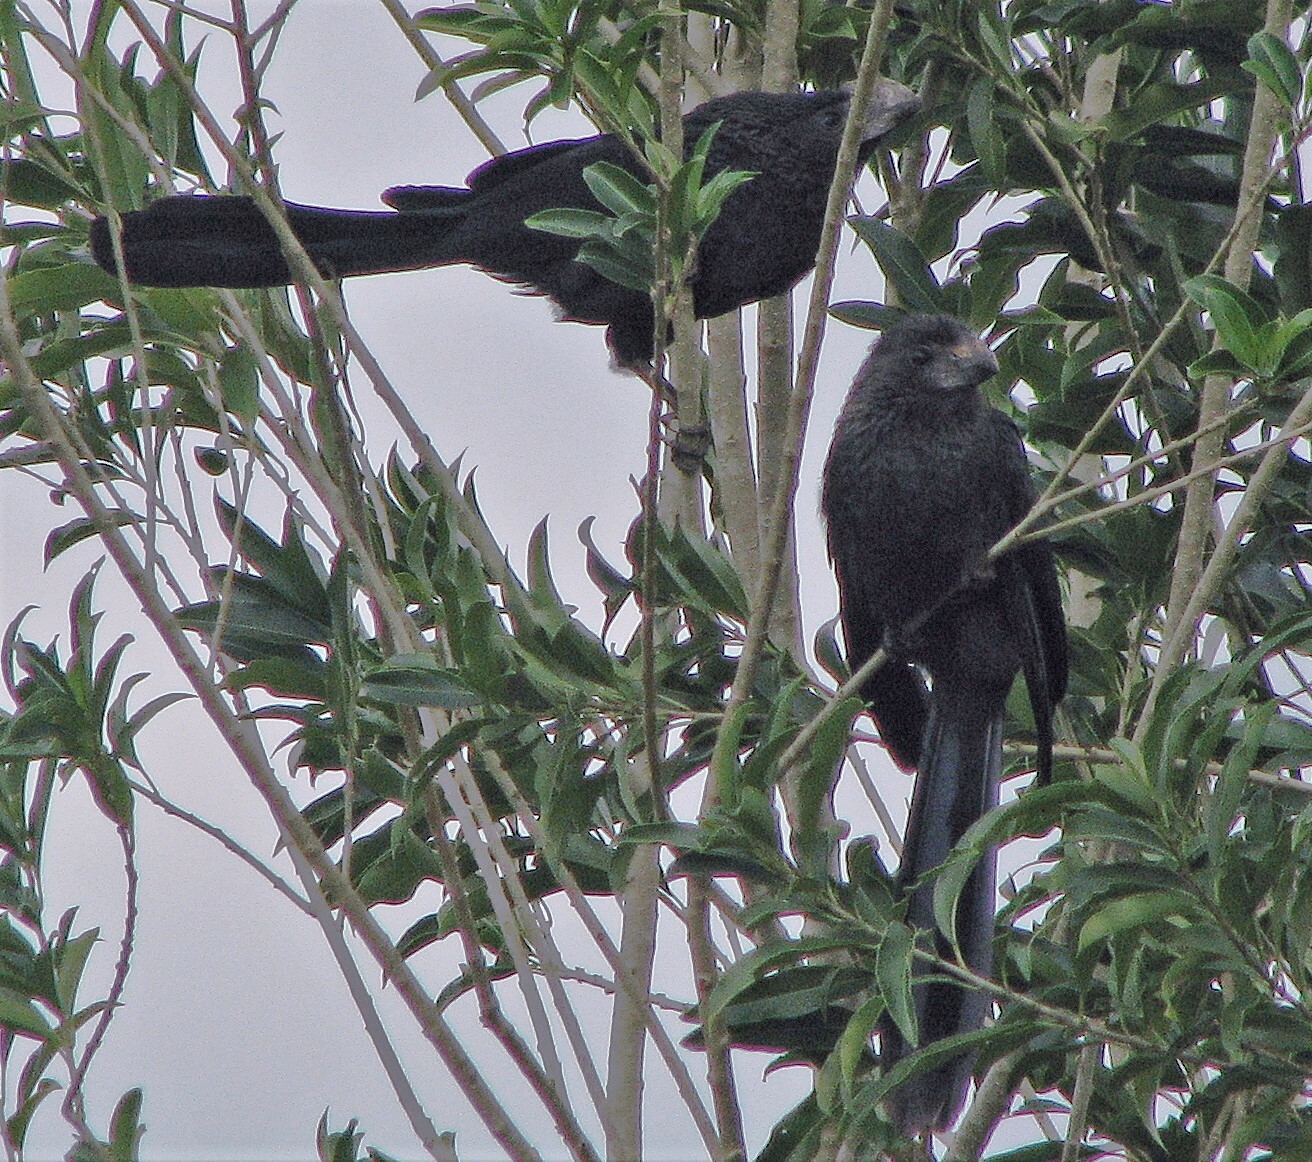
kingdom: Animalia
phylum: Chordata
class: Aves
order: Cuculiformes
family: Cuculidae
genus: Crotophaga
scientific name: Crotophaga ani
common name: Smooth-billed ani
